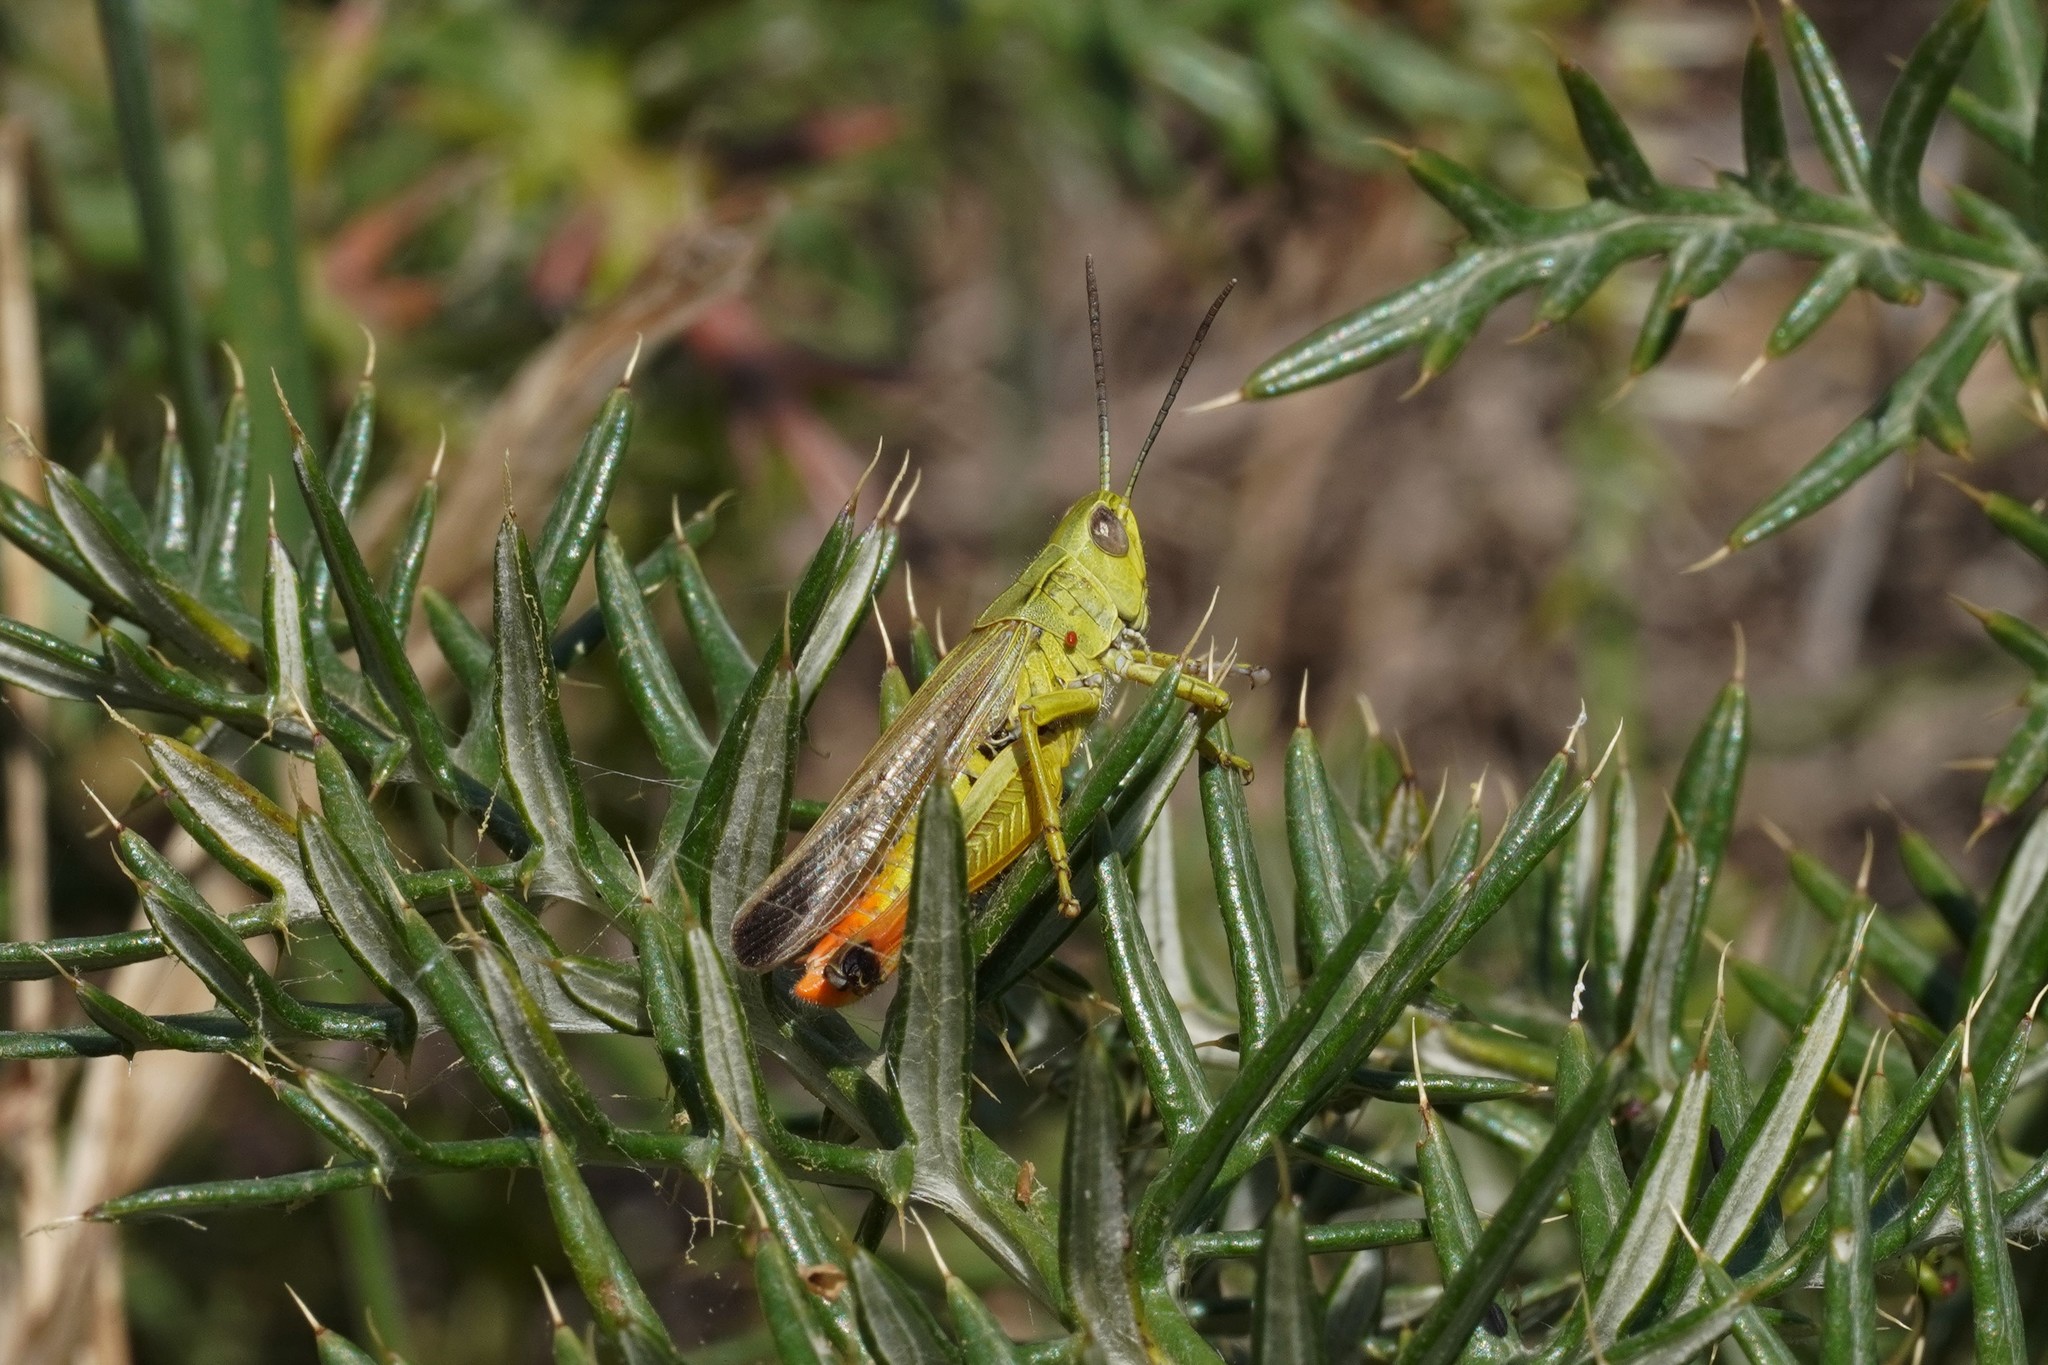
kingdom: Animalia
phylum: Arthropoda
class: Insecta
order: Orthoptera
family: Acrididae
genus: Chorthippus
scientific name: Chorthippus apicalis
